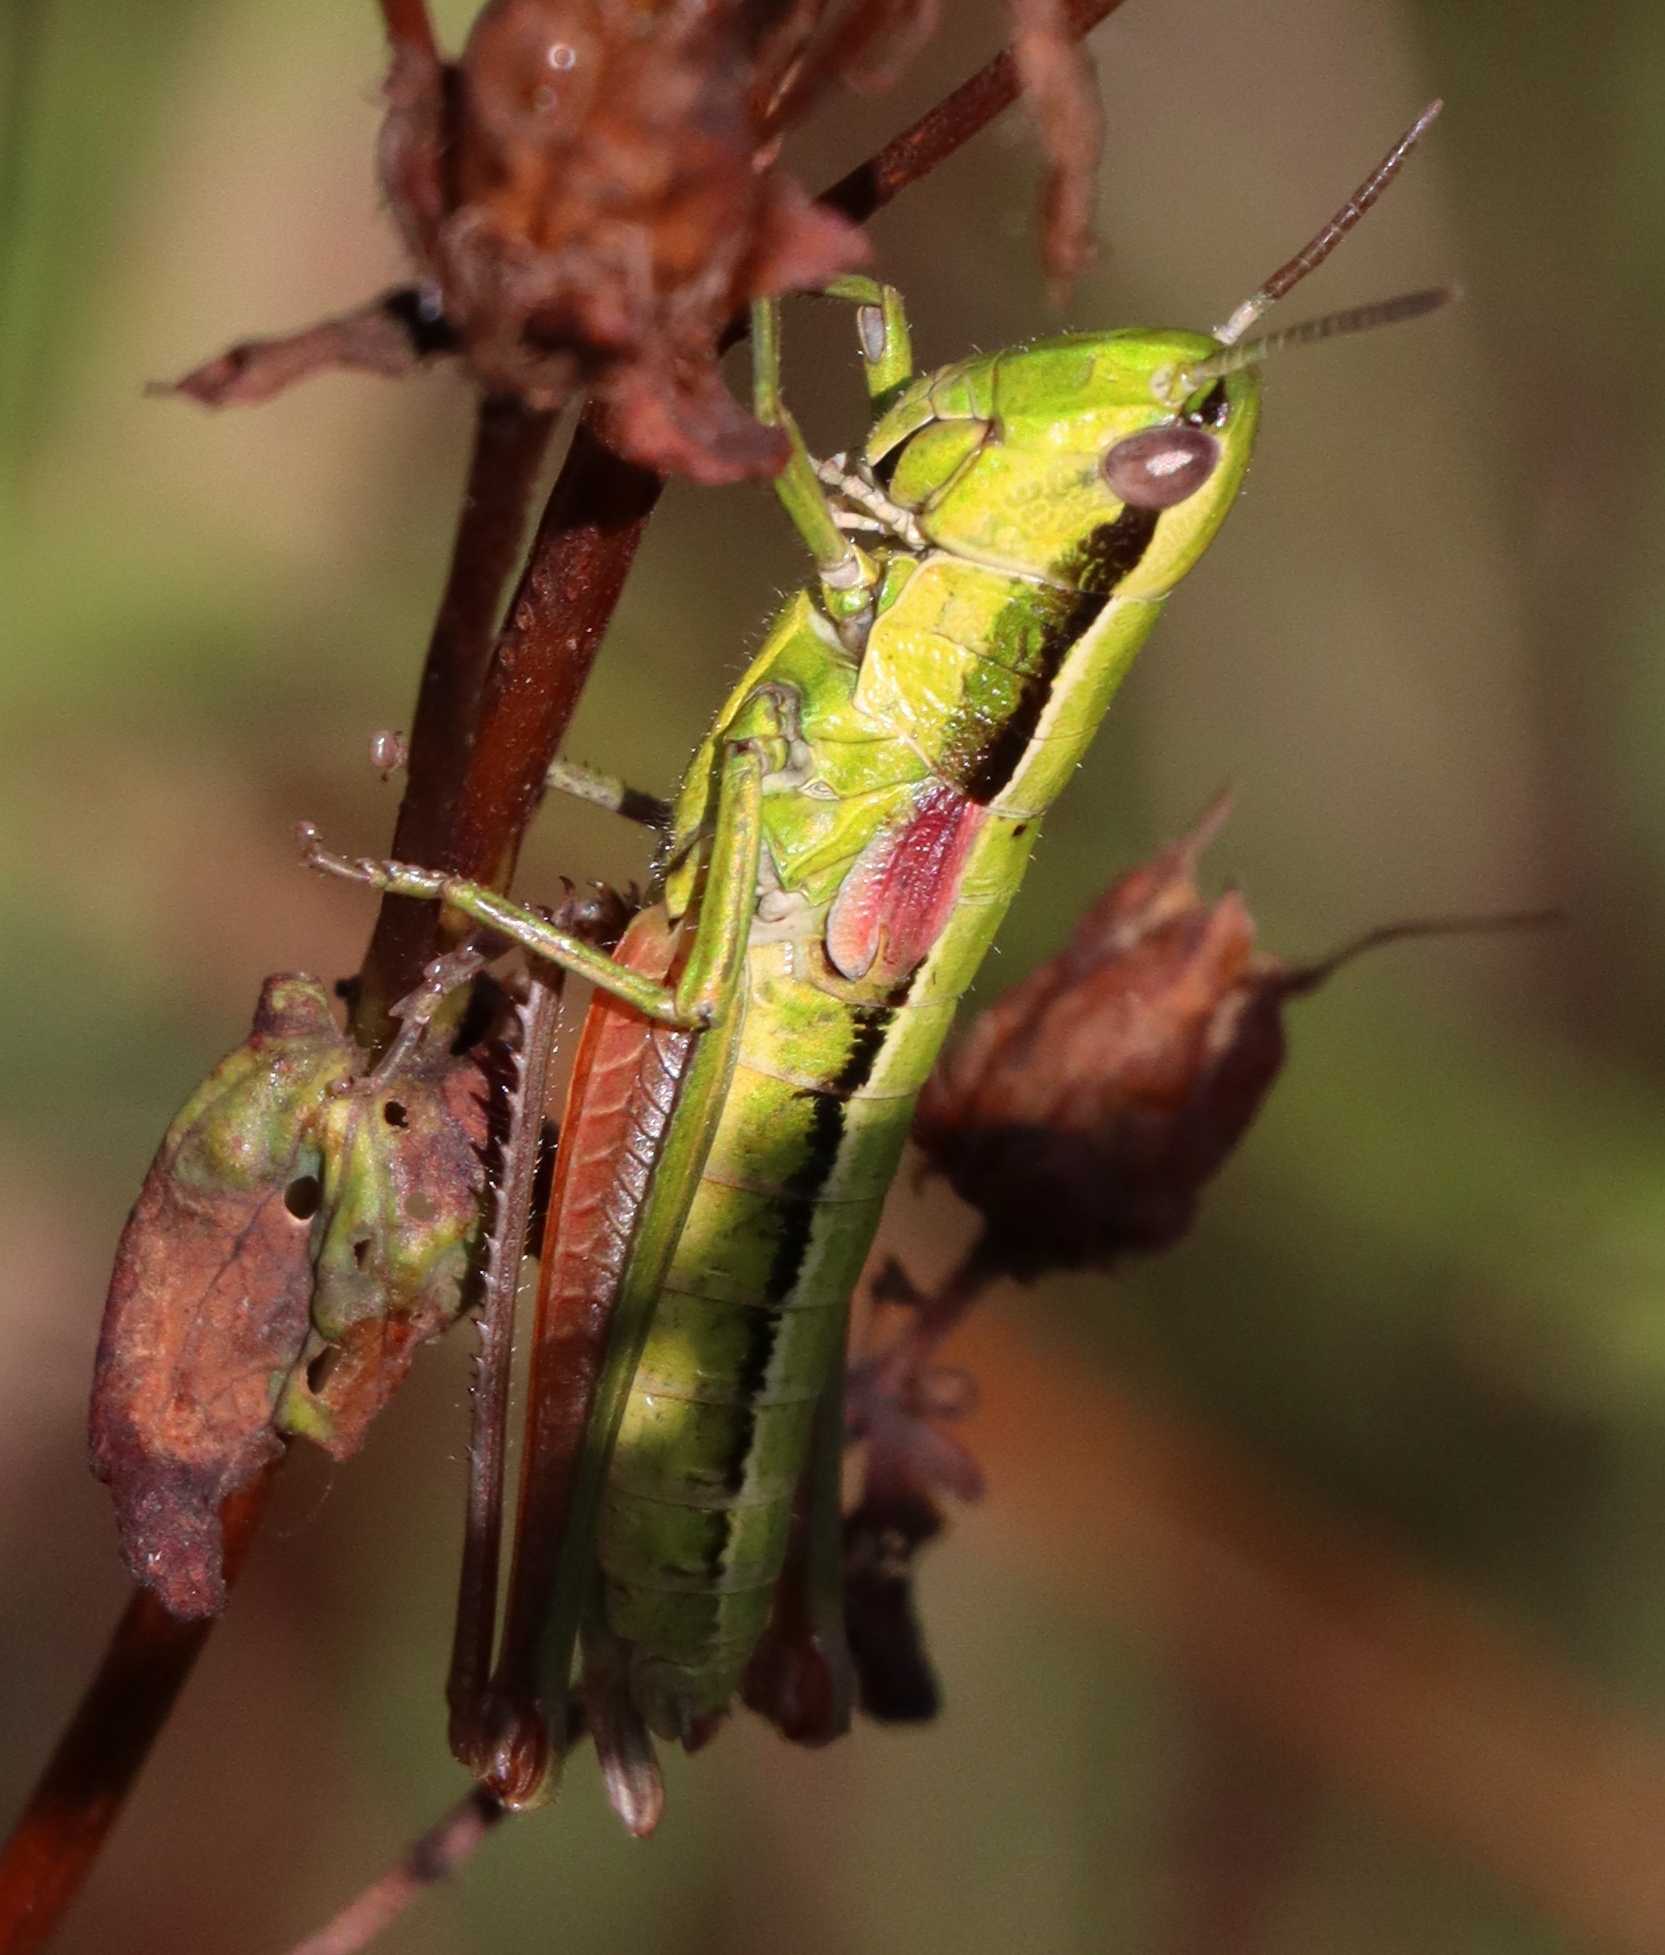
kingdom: Animalia
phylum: Arthropoda
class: Insecta
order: Orthoptera
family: Acrididae
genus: Euthystira
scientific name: Euthystira brachyptera
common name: Small gold grasshopper
